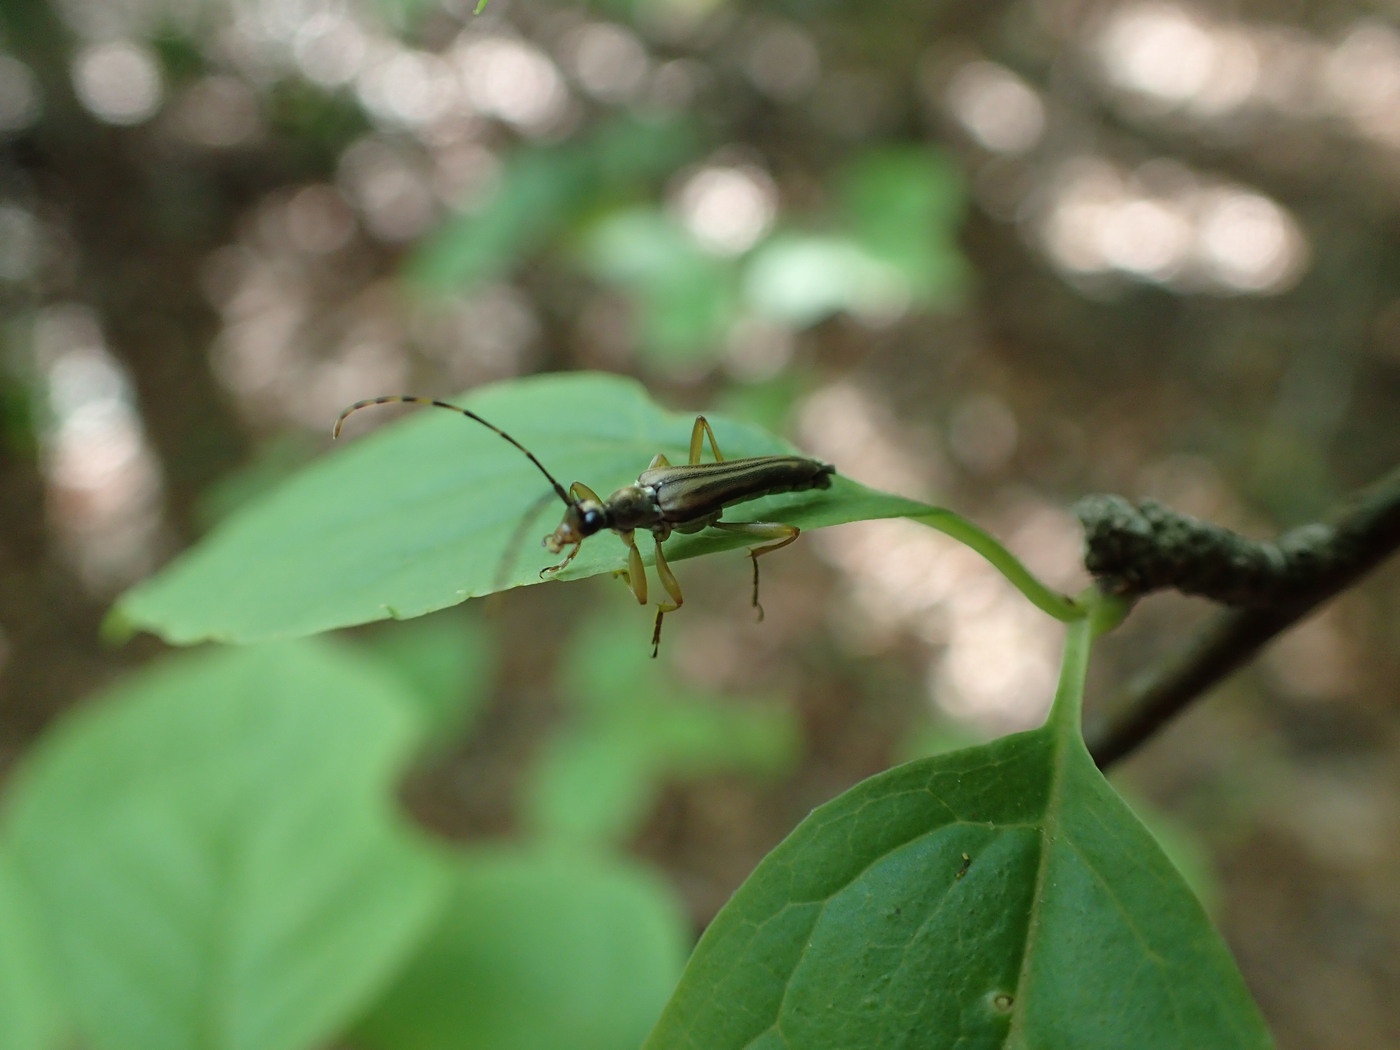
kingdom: Animalia
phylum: Arthropoda
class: Insecta
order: Coleoptera
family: Cerambycidae
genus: Analeptura
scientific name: Analeptura lineola
